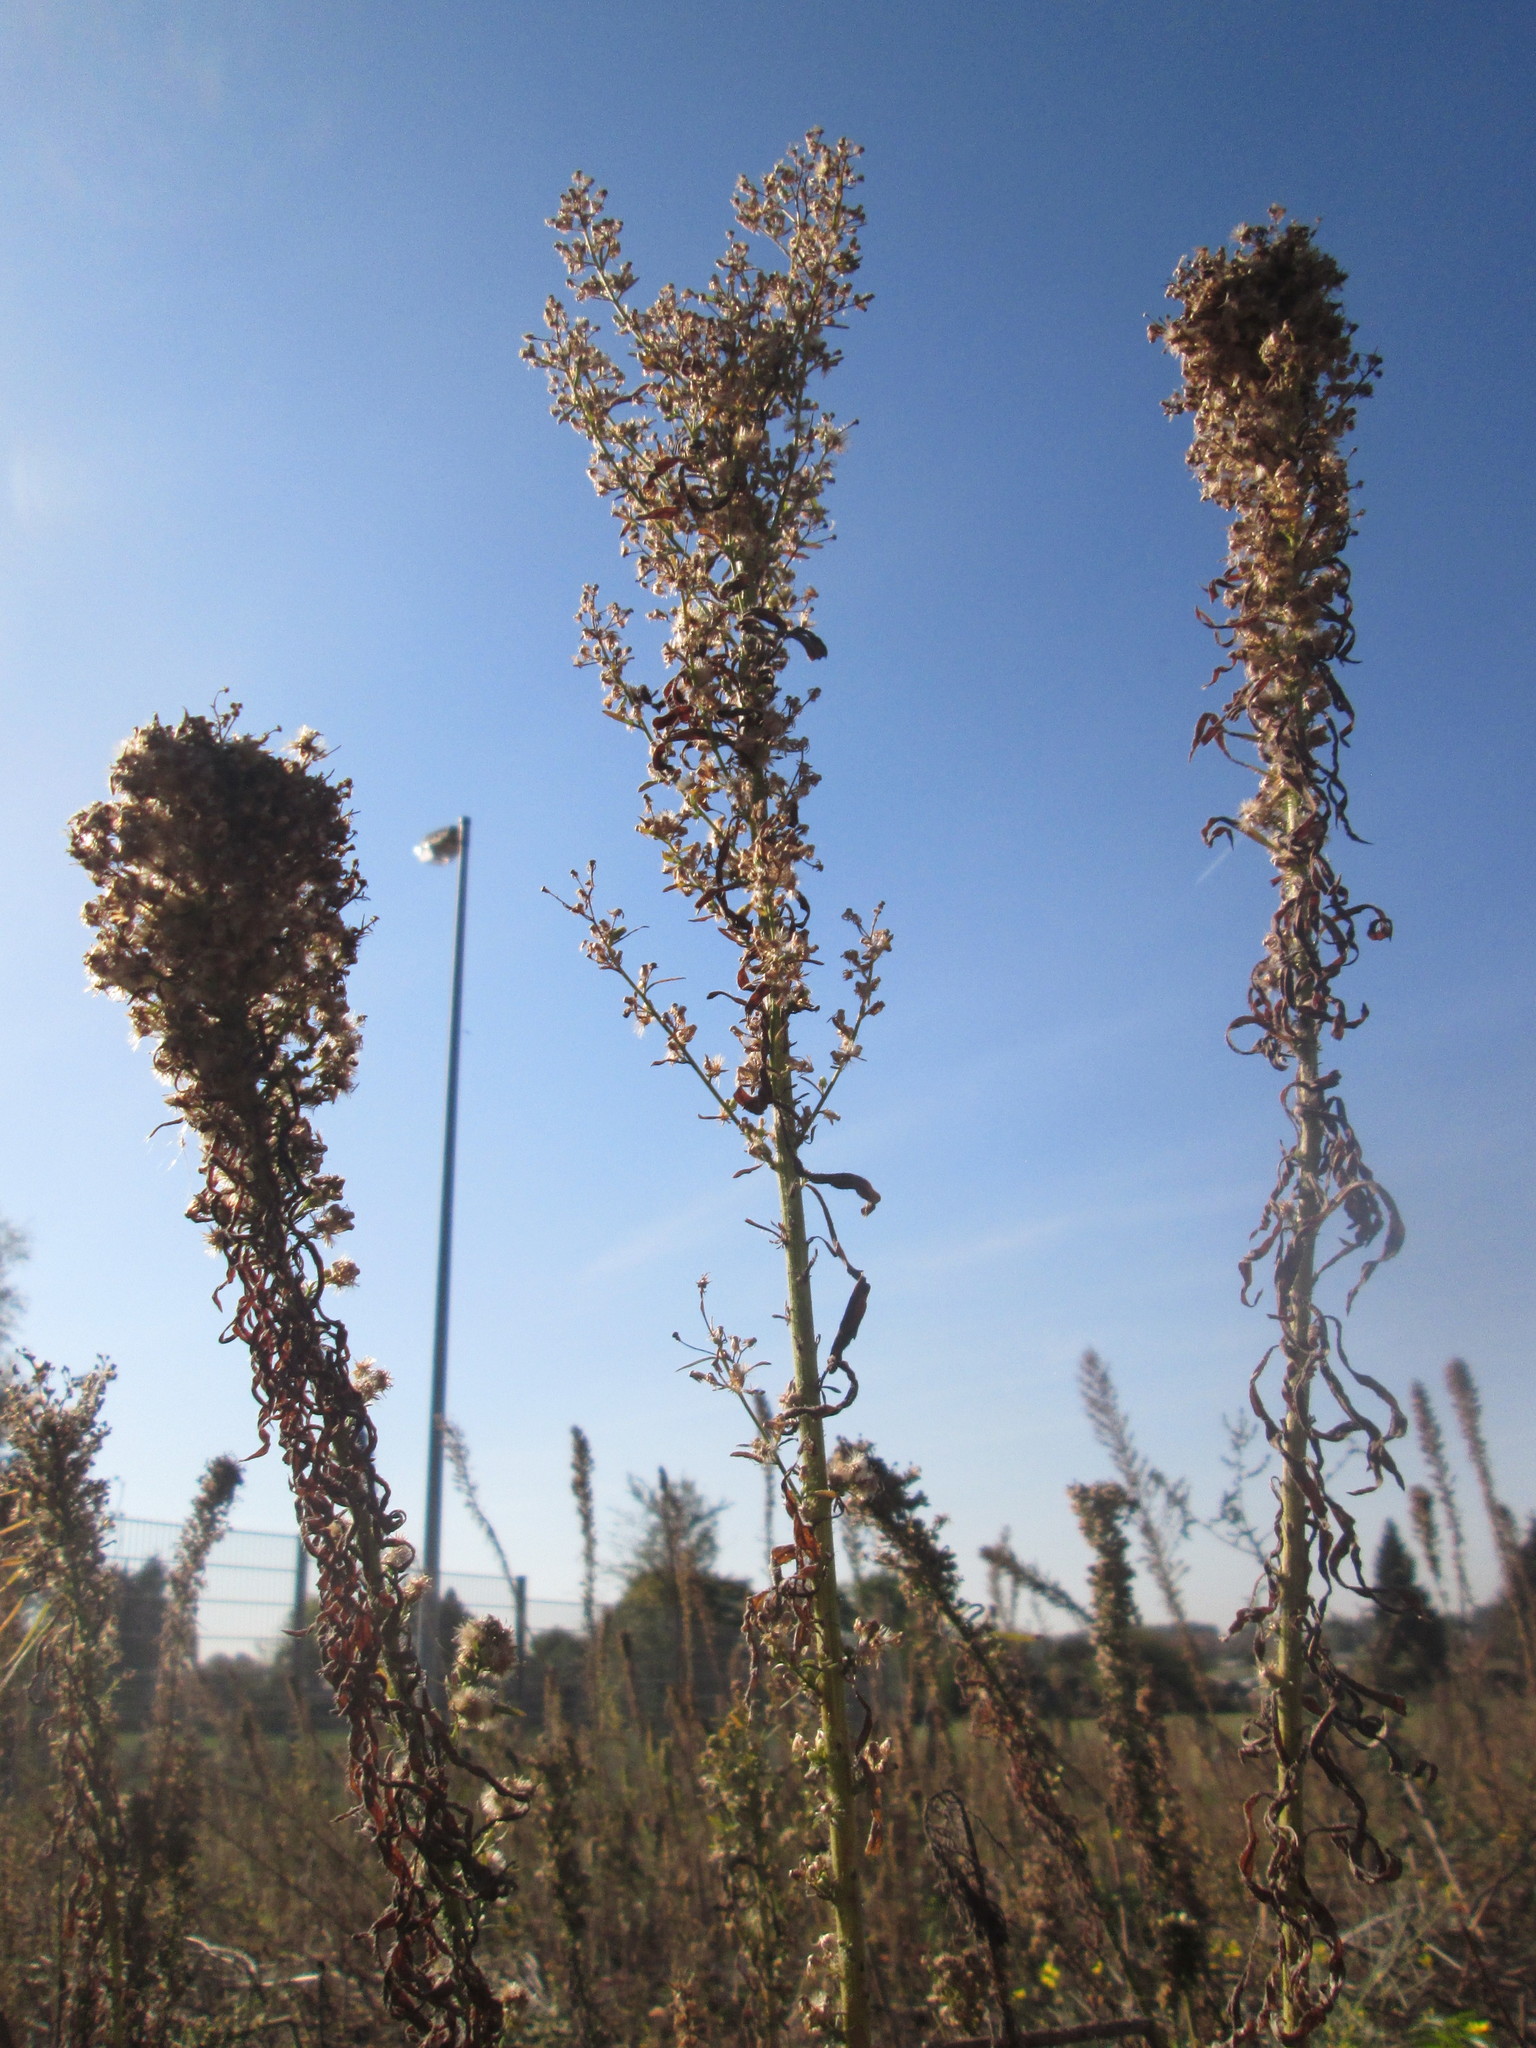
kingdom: Plantae
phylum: Tracheophyta
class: Magnoliopsida
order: Asterales
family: Asteraceae
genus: Erigeron
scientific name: Erigeron canadensis
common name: Canadian fleabane
